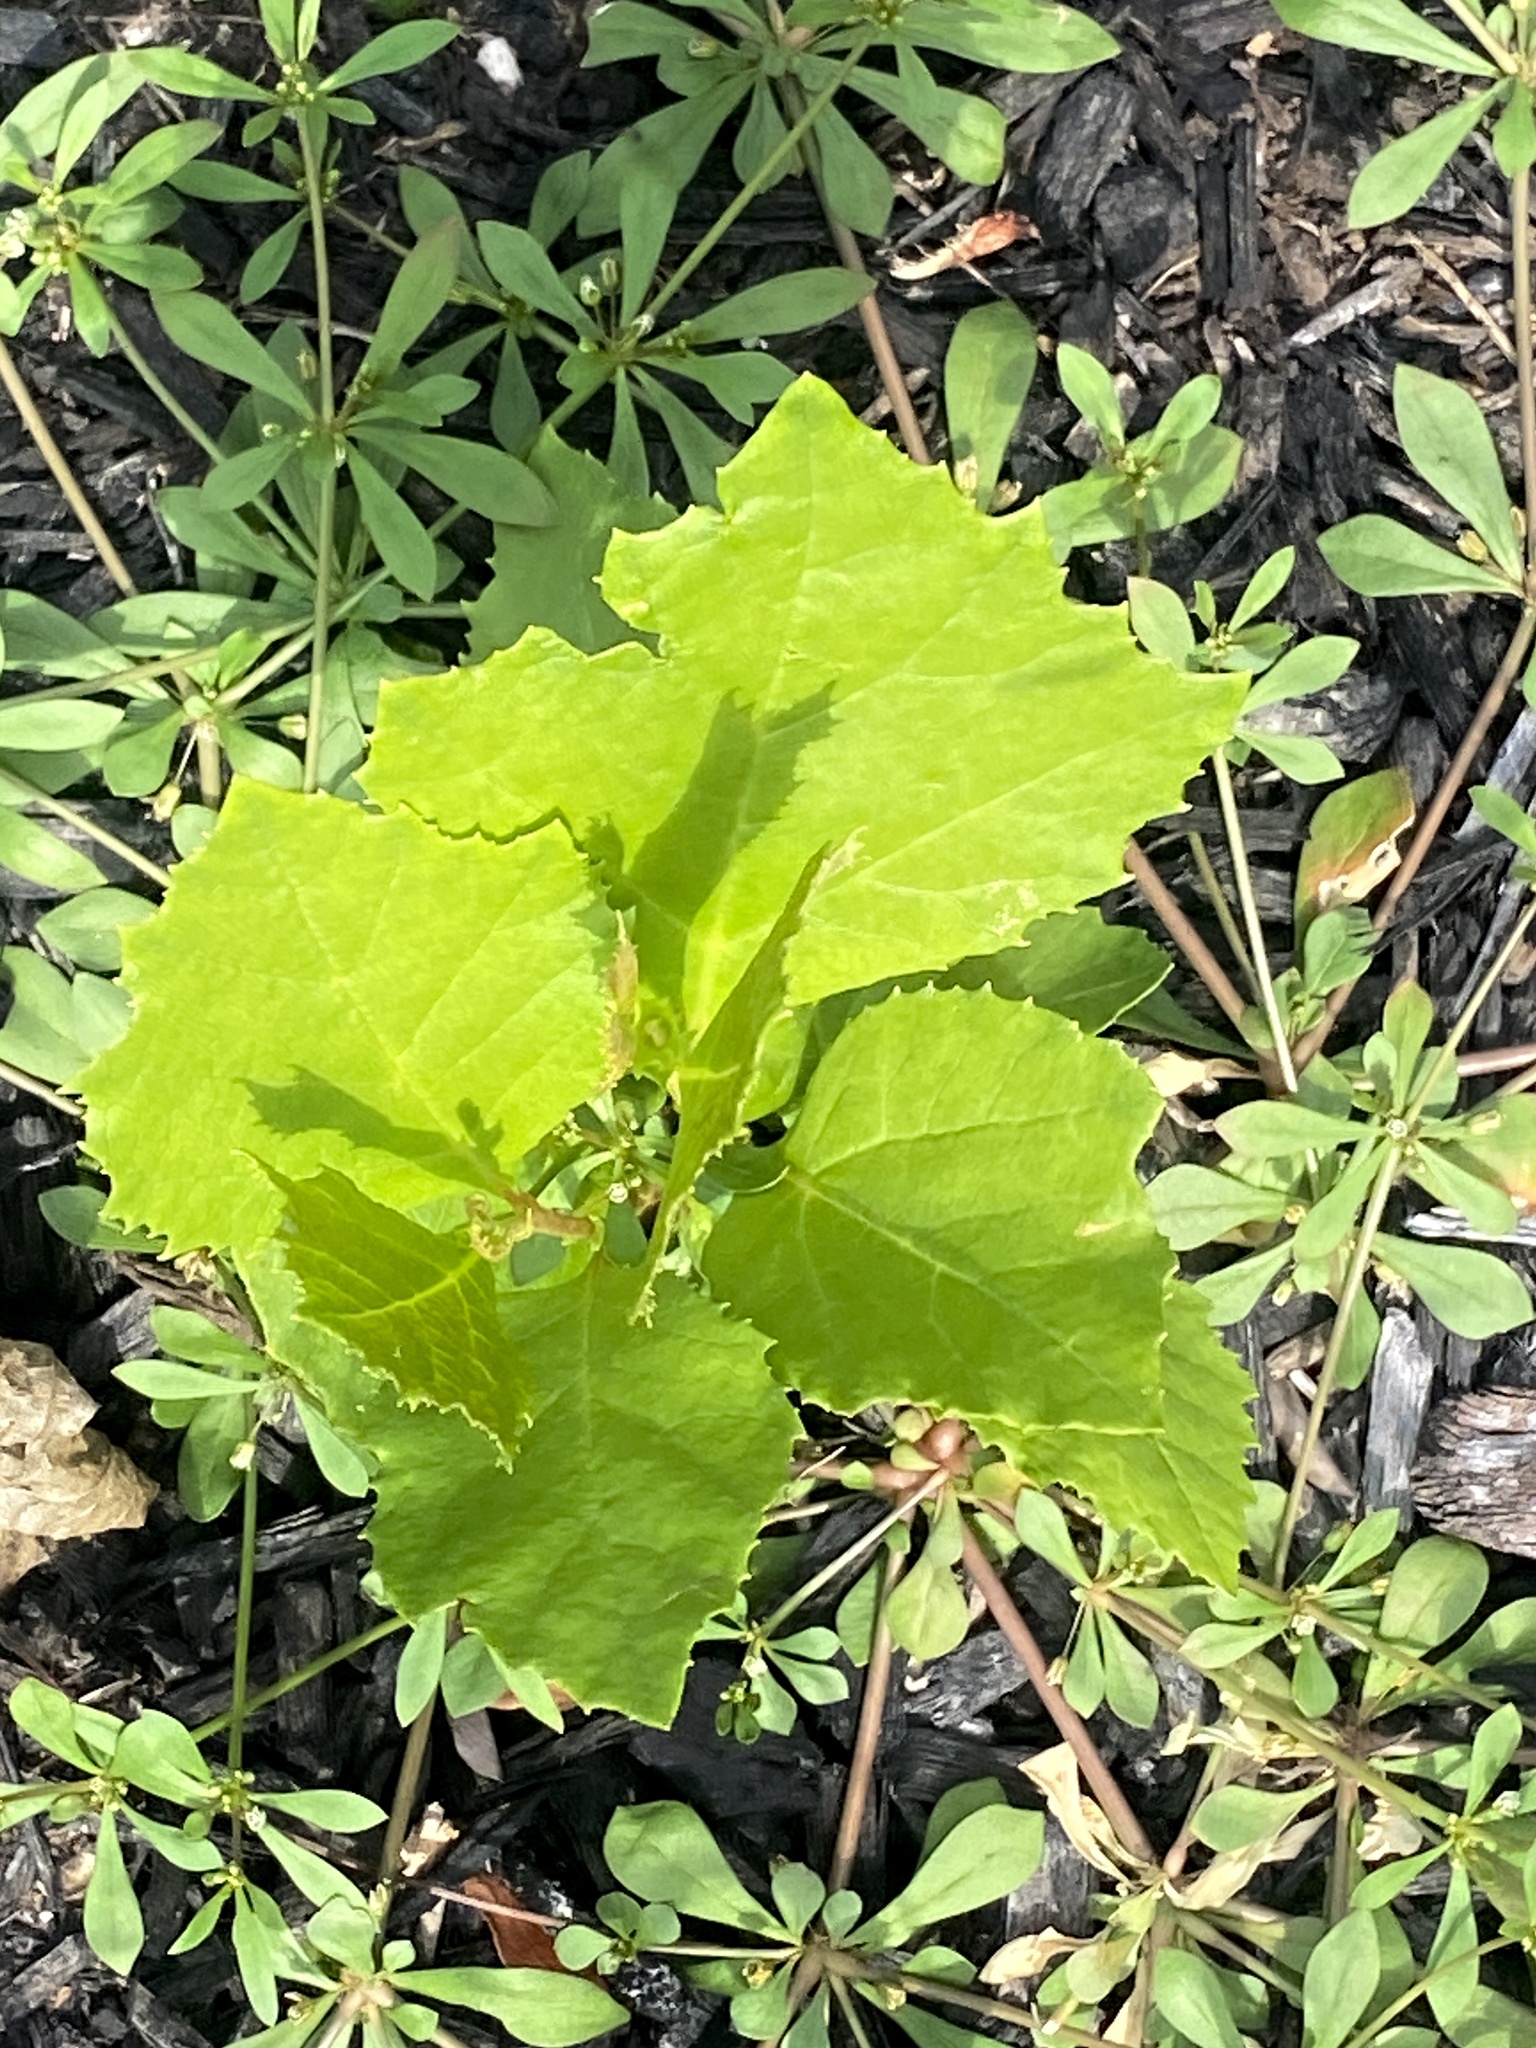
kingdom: Plantae
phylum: Tracheophyta
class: Magnoliopsida
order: Proteales
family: Platanaceae
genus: Platanus
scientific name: Platanus occidentalis
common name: American sycamore
